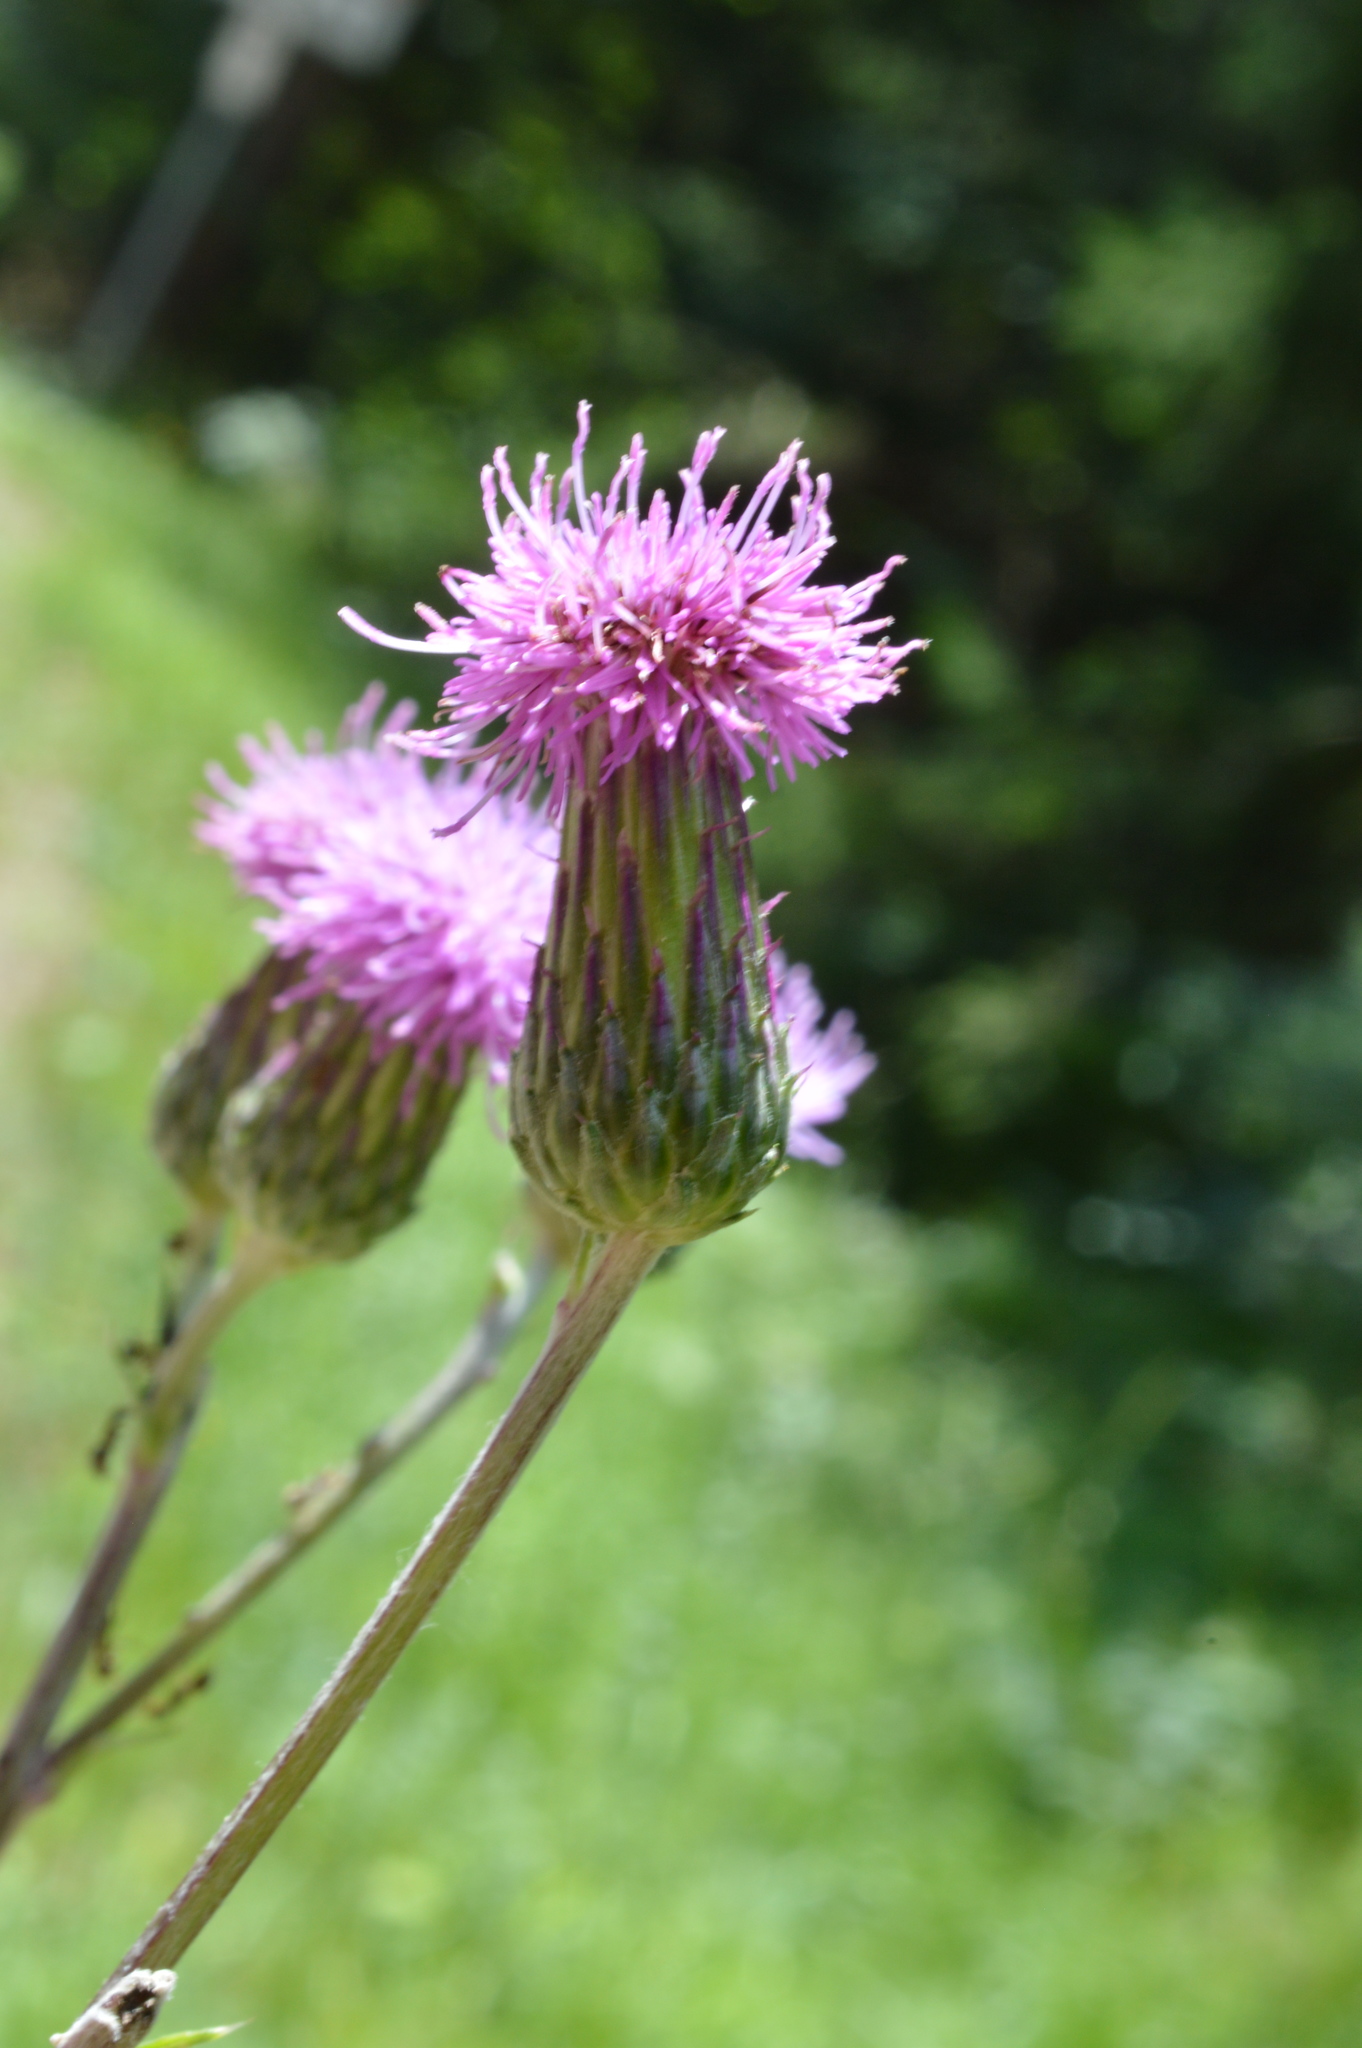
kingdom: Plantae
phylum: Tracheophyta
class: Magnoliopsida
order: Asterales
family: Asteraceae
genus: Cirsium
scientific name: Cirsium arvense
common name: Creeping thistle
